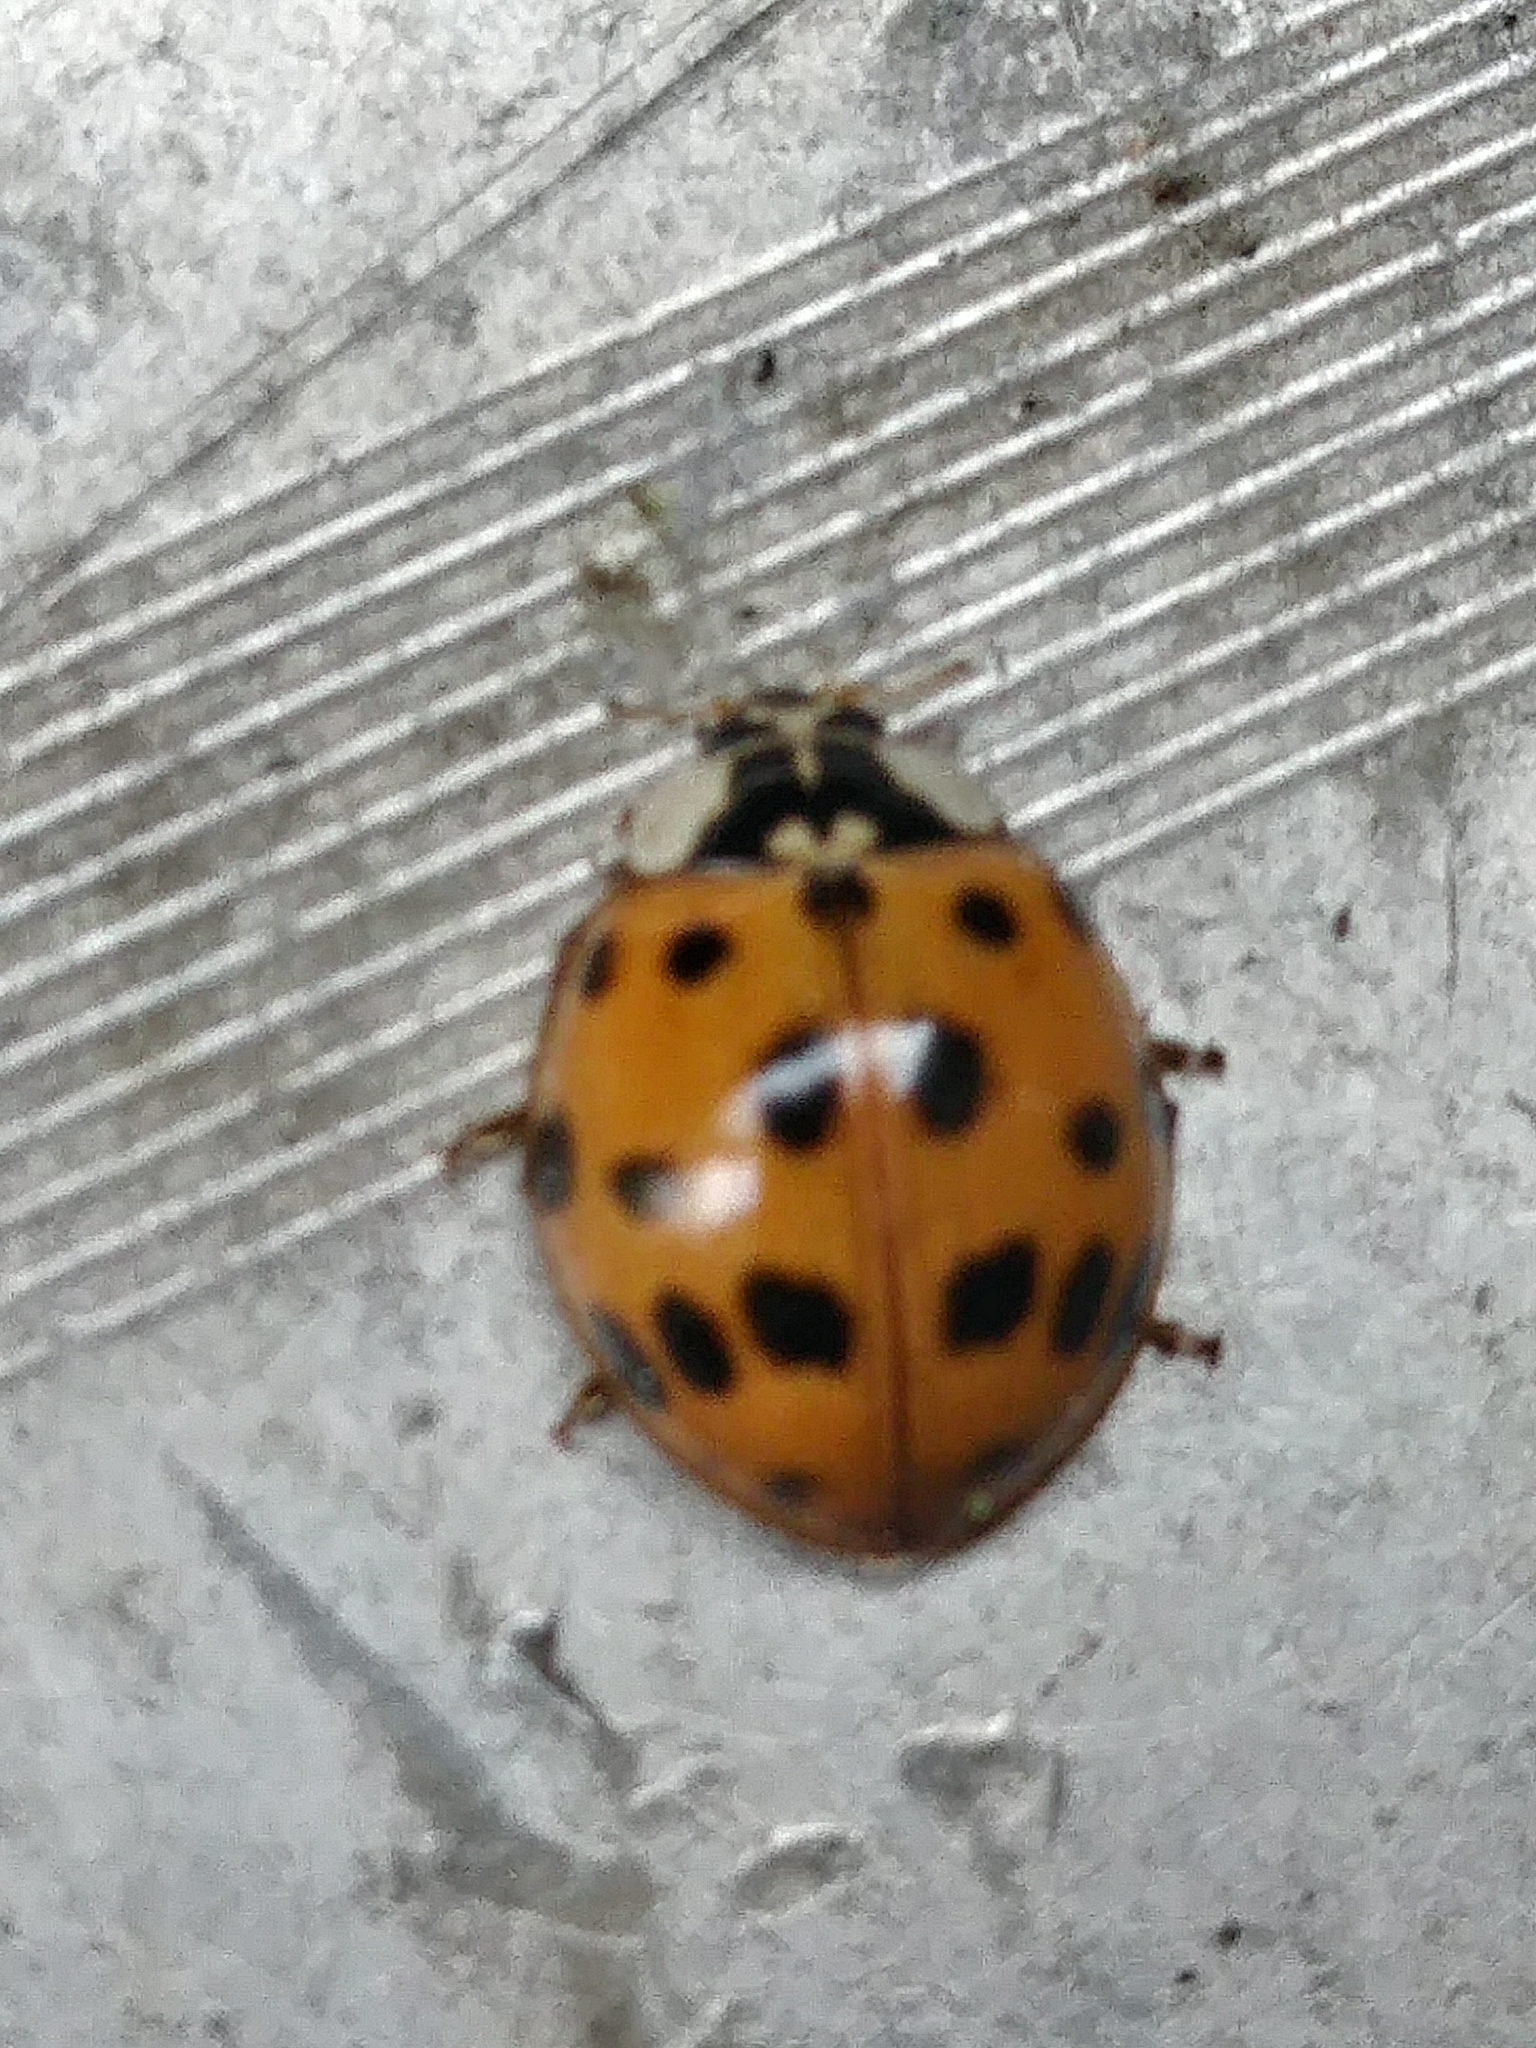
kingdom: Animalia
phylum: Arthropoda
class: Insecta
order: Coleoptera
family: Coccinellidae
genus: Harmonia
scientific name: Harmonia axyridis
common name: Harlequin ladybird
